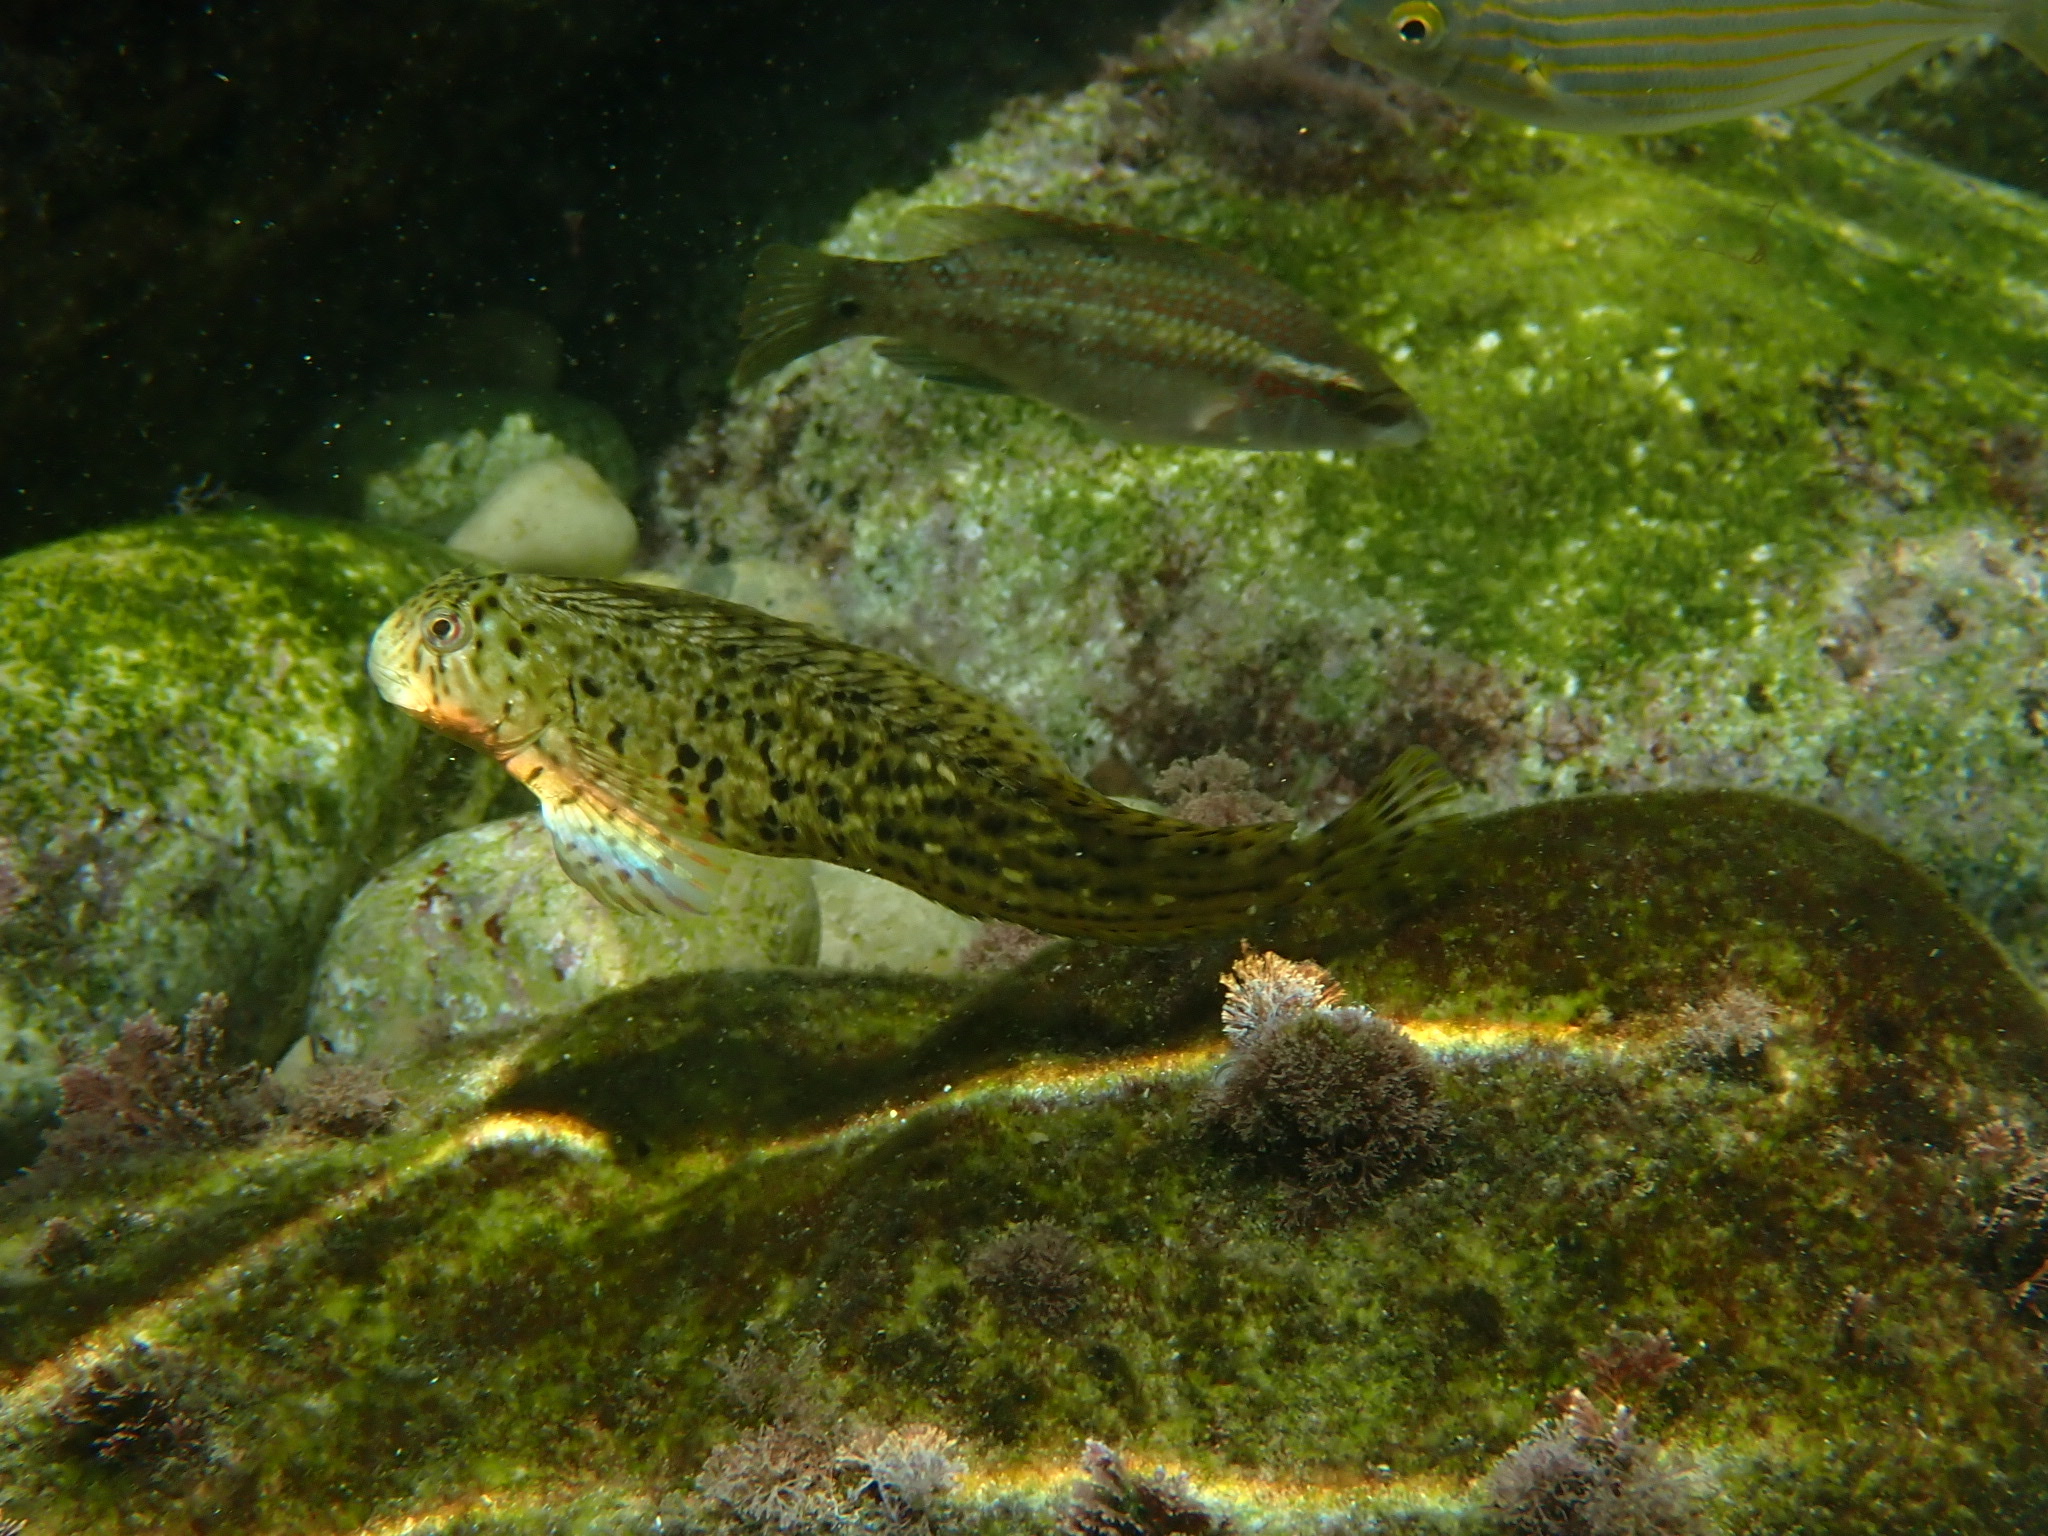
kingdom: Animalia
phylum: Chordata
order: Perciformes
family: Blenniidae
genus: Parablennius
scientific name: Parablennius sanguinolentus
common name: Black sea blenny
